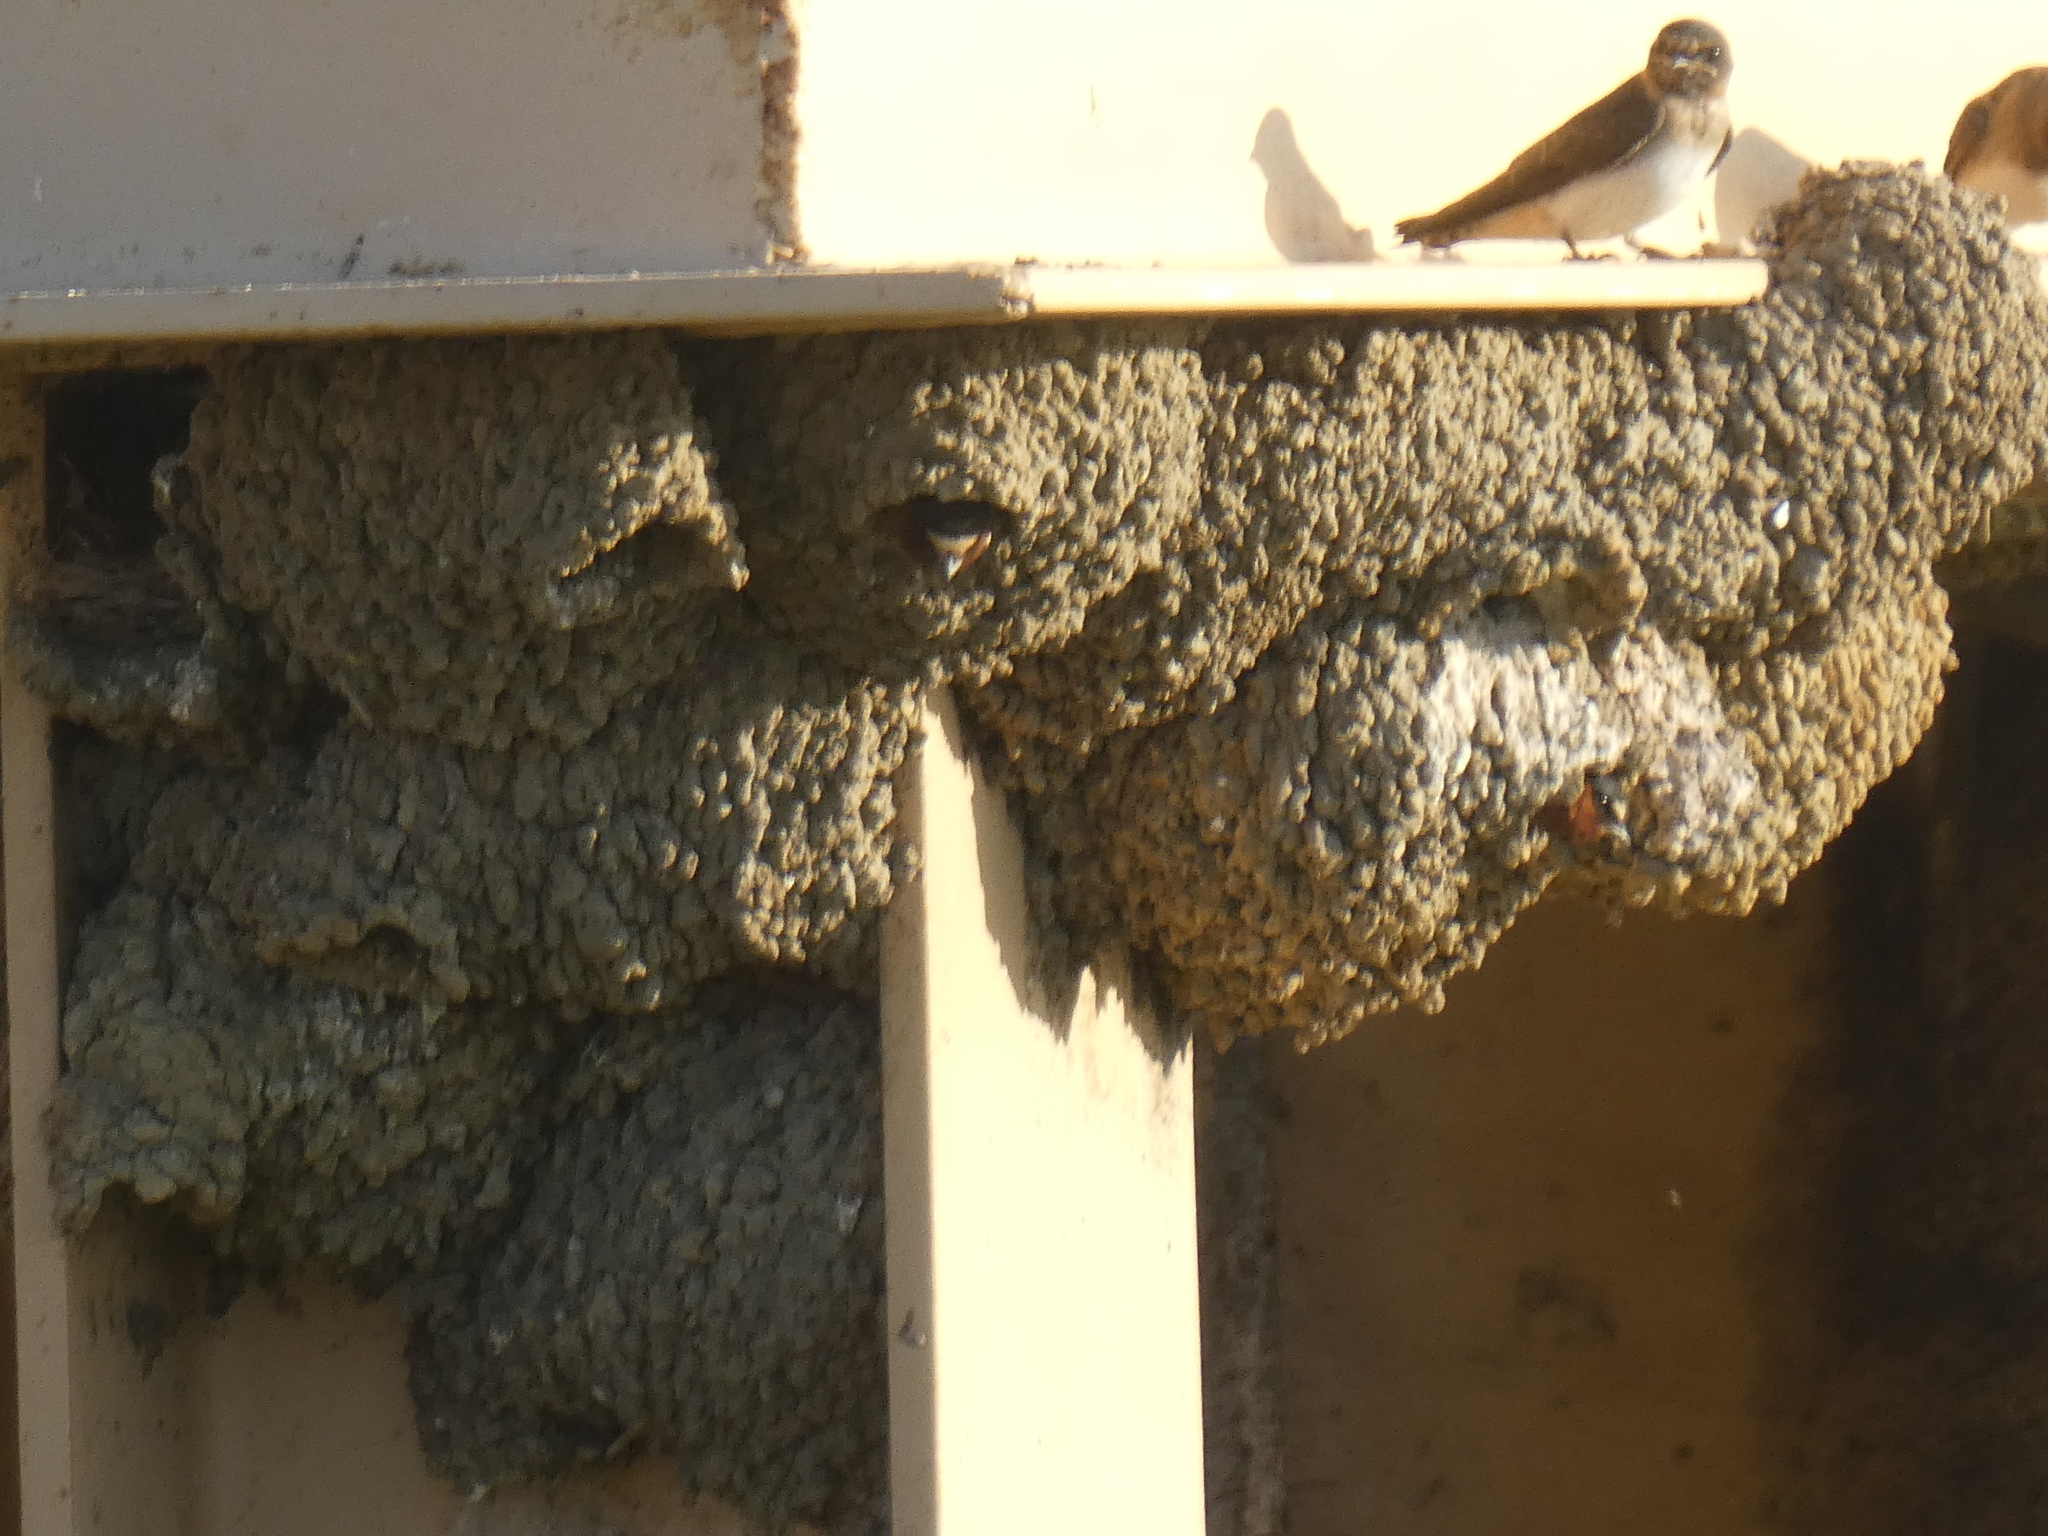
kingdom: Animalia
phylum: Chordata
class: Aves
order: Passeriformes
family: Hirundinidae
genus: Petrochelidon
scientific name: Petrochelidon pyrrhonota
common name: American cliff swallow
